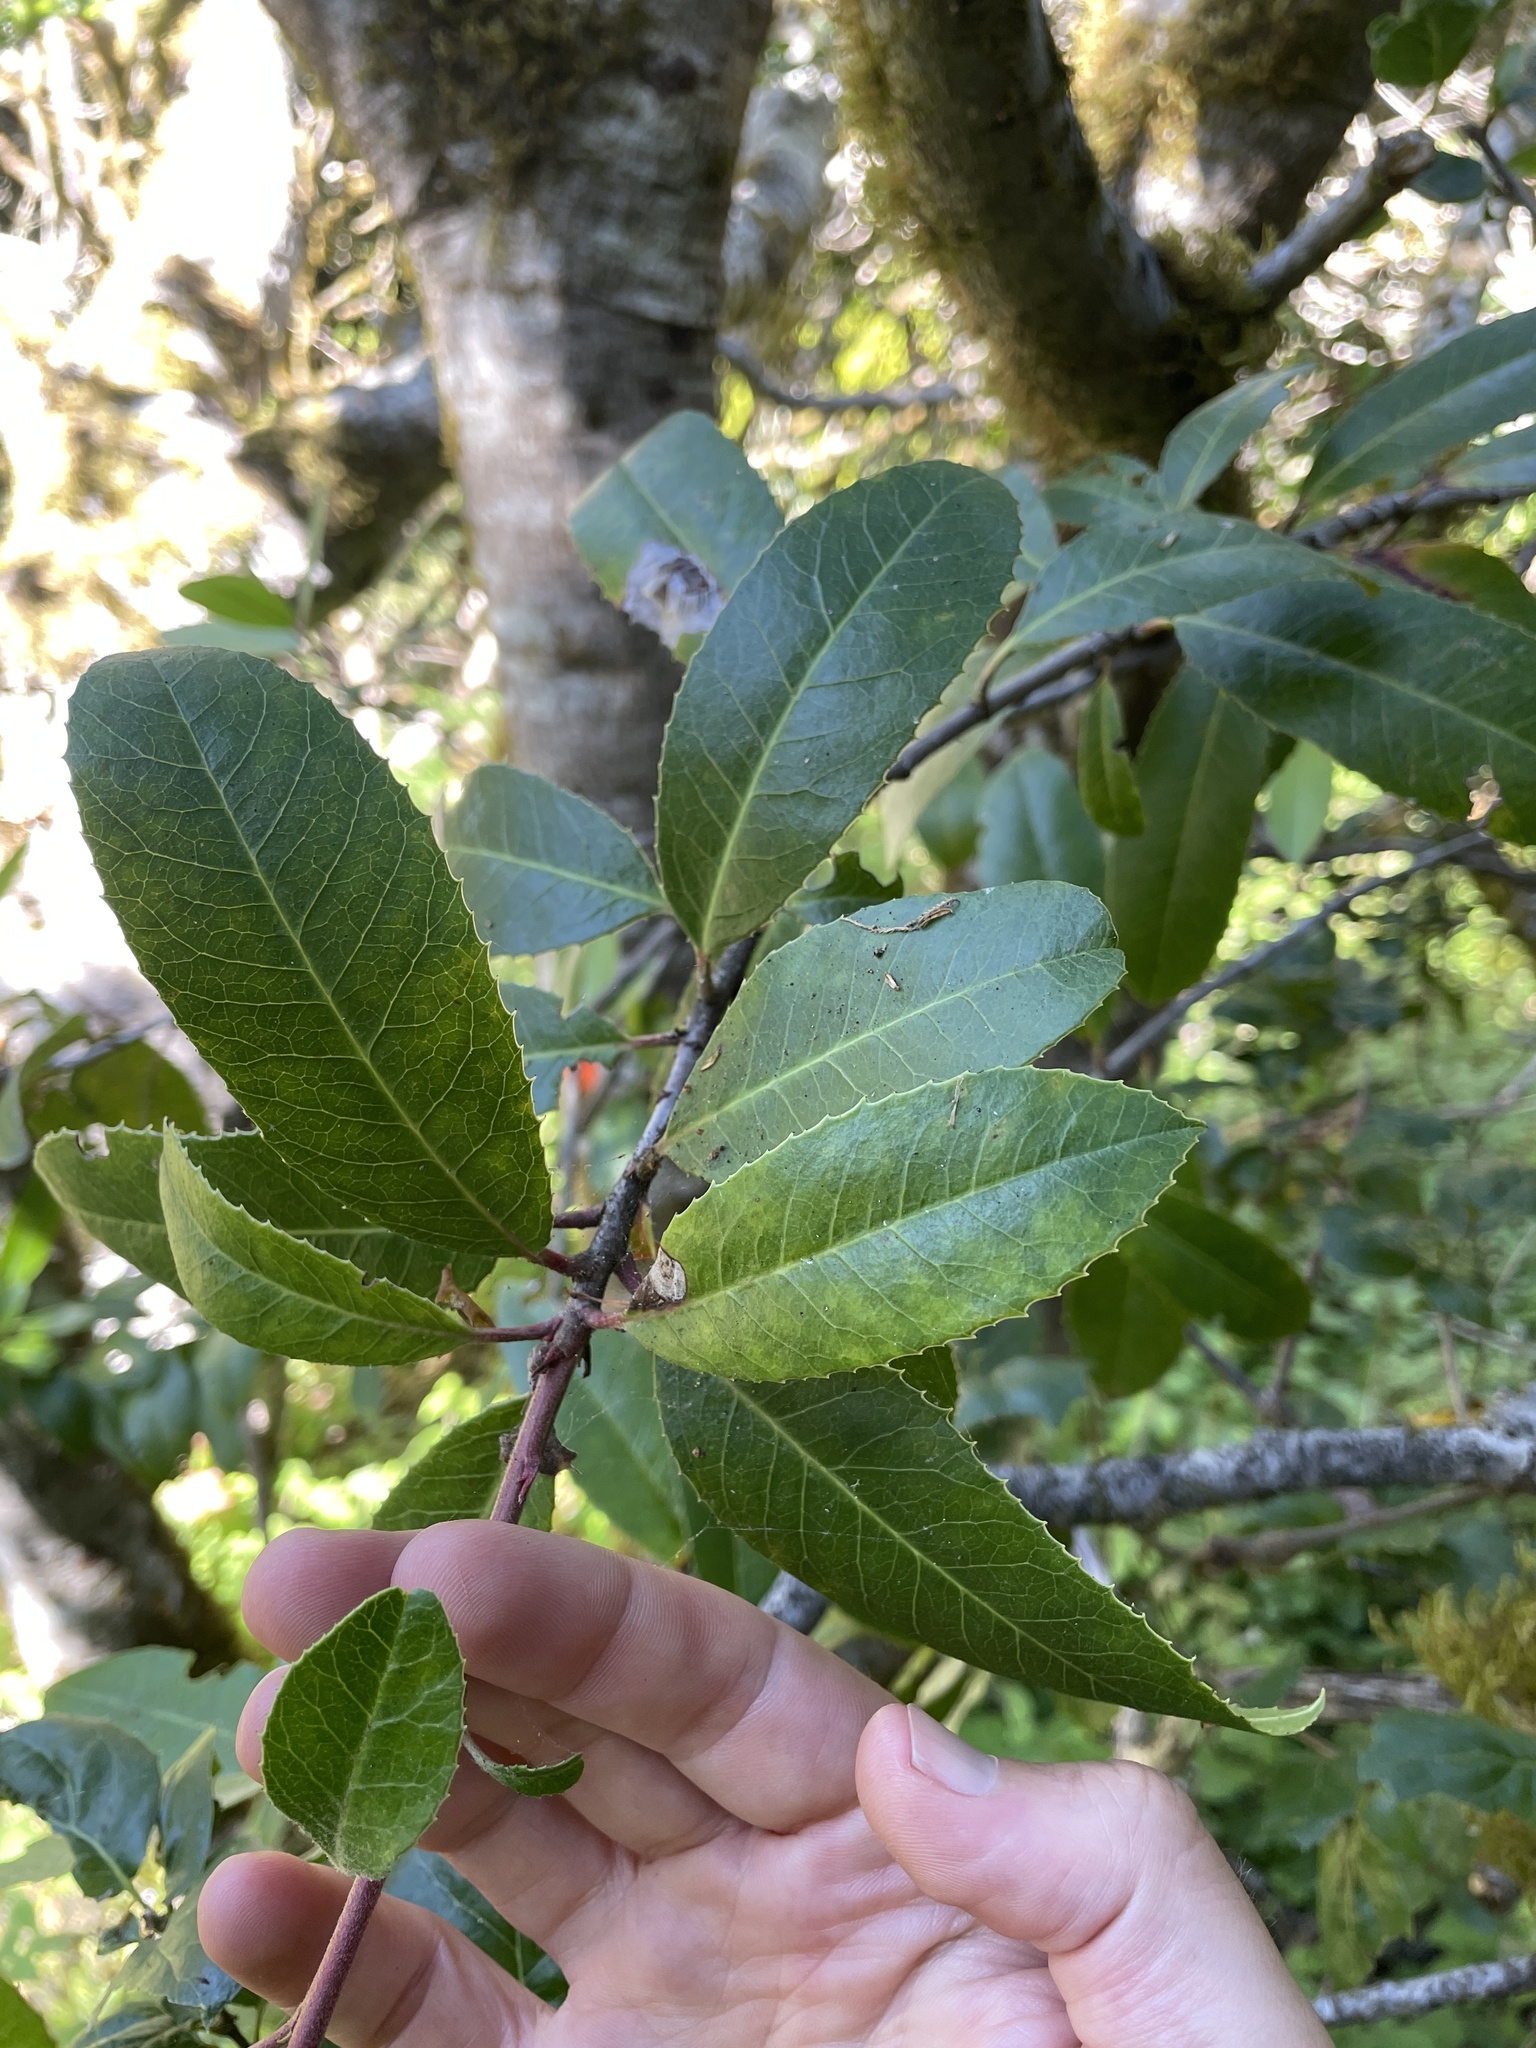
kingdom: Plantae
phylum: Tracheophyta
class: Magnoliopsida
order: Rosales
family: Rosaceae
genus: Heteromeles
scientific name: Heteromeles arbutifolia
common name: California-holly
